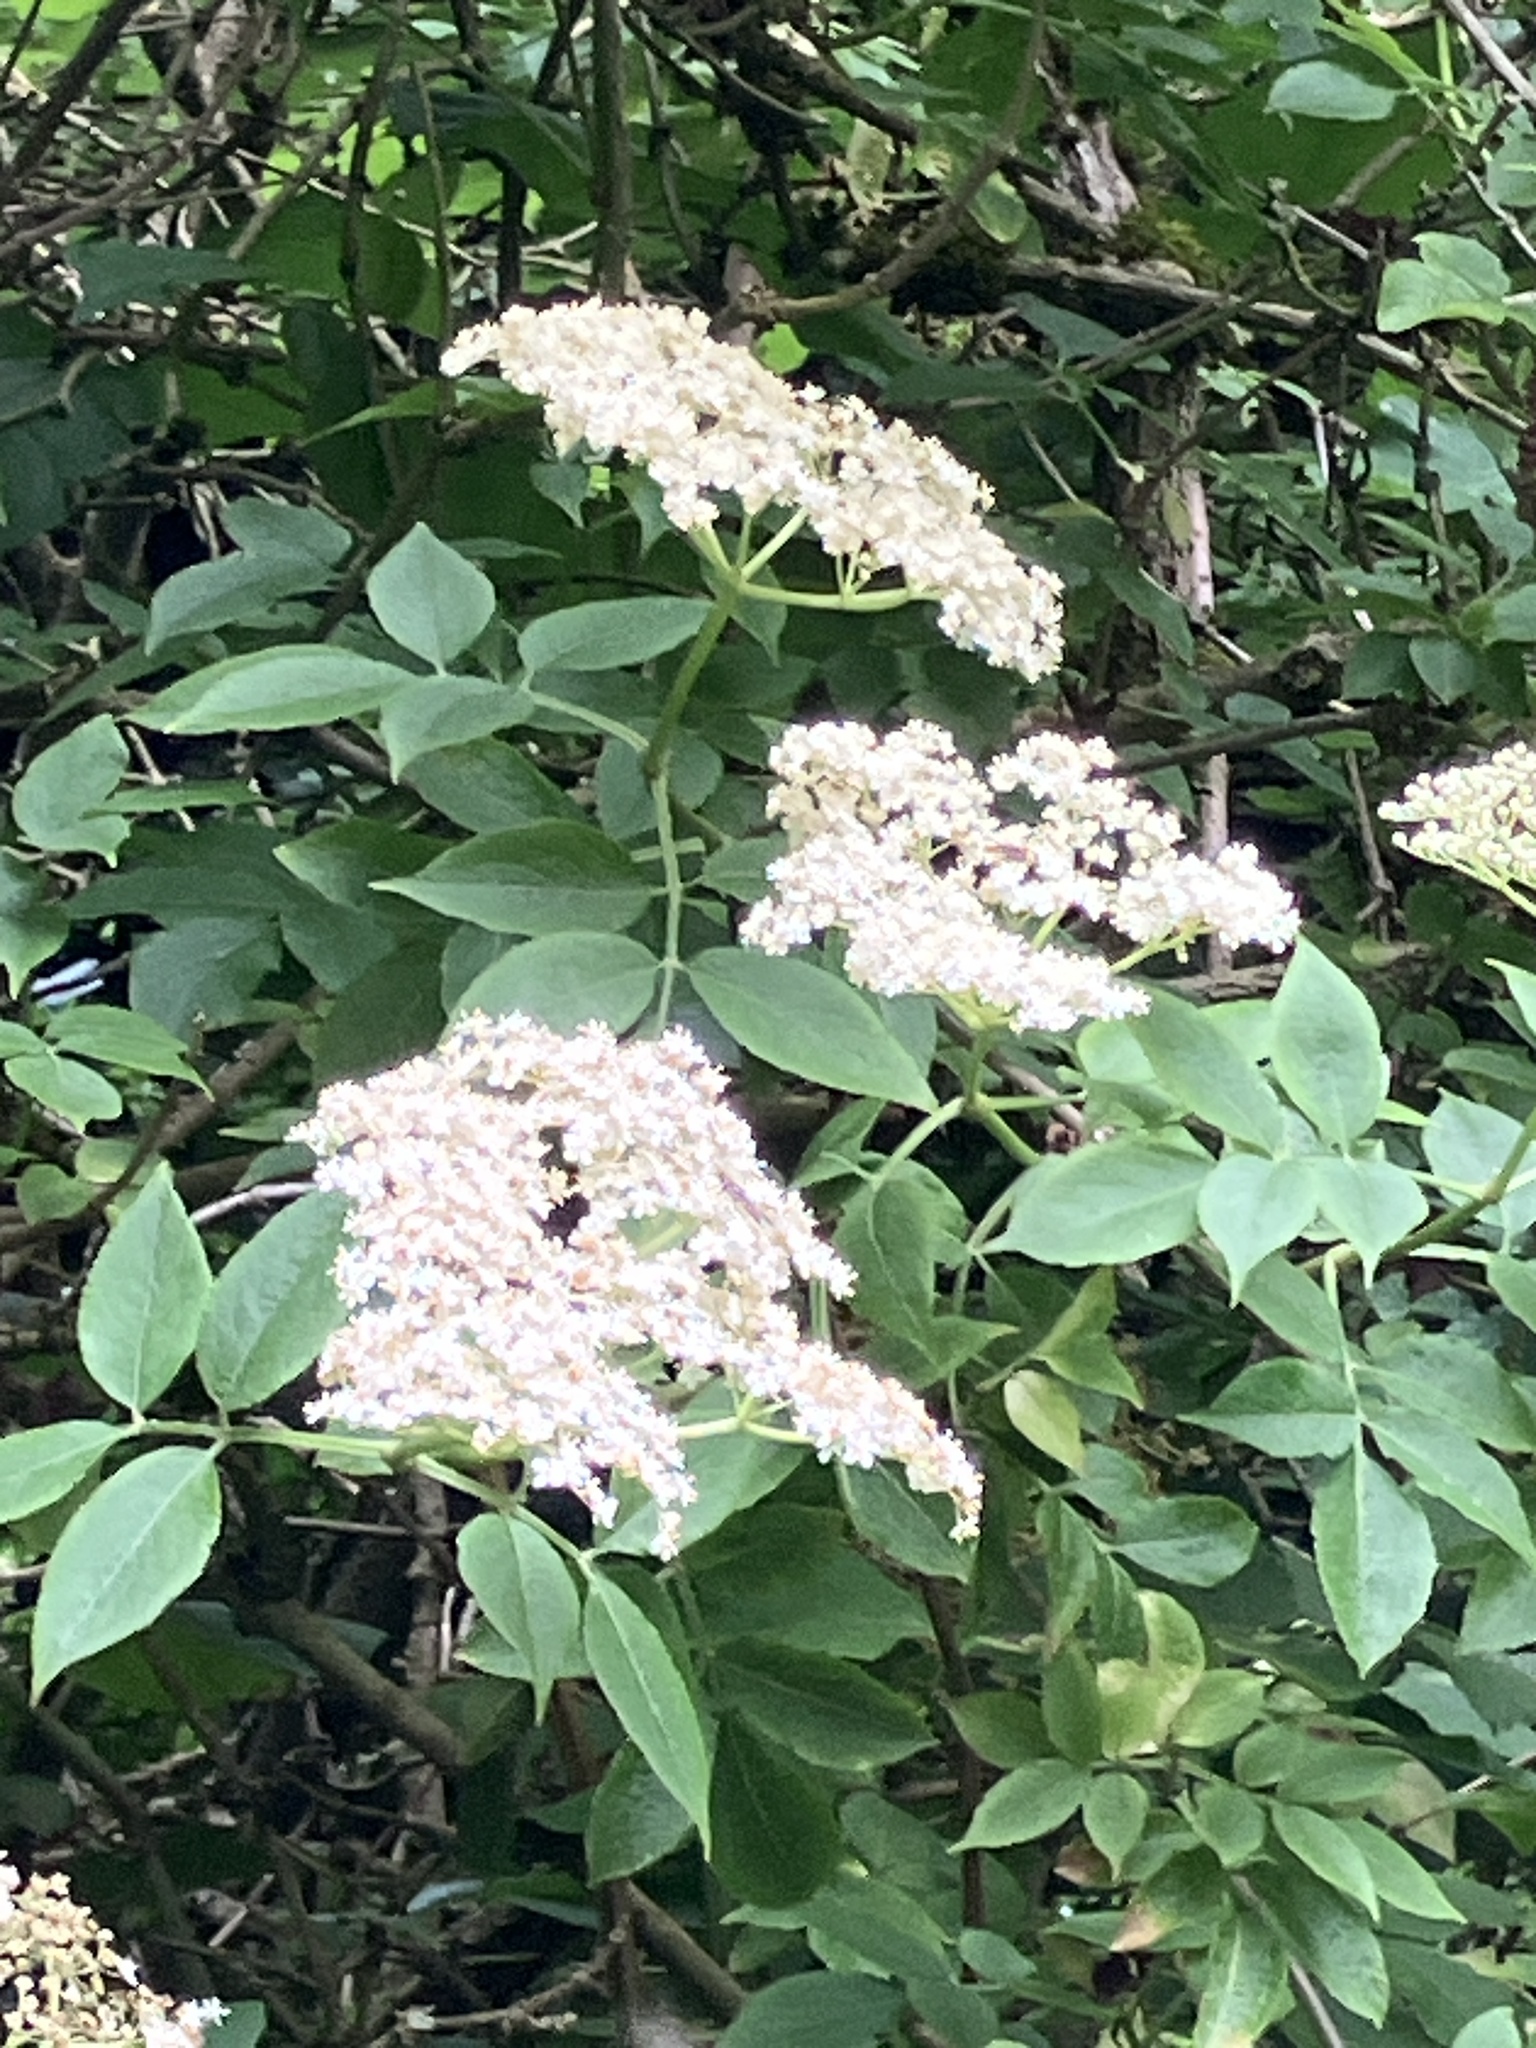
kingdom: Plantae
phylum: Tracheophyta
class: Magnoliopsida
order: Dipsacales
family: Viburnaceae
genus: Sambucus
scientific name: Sambucus nigra
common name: Elder
